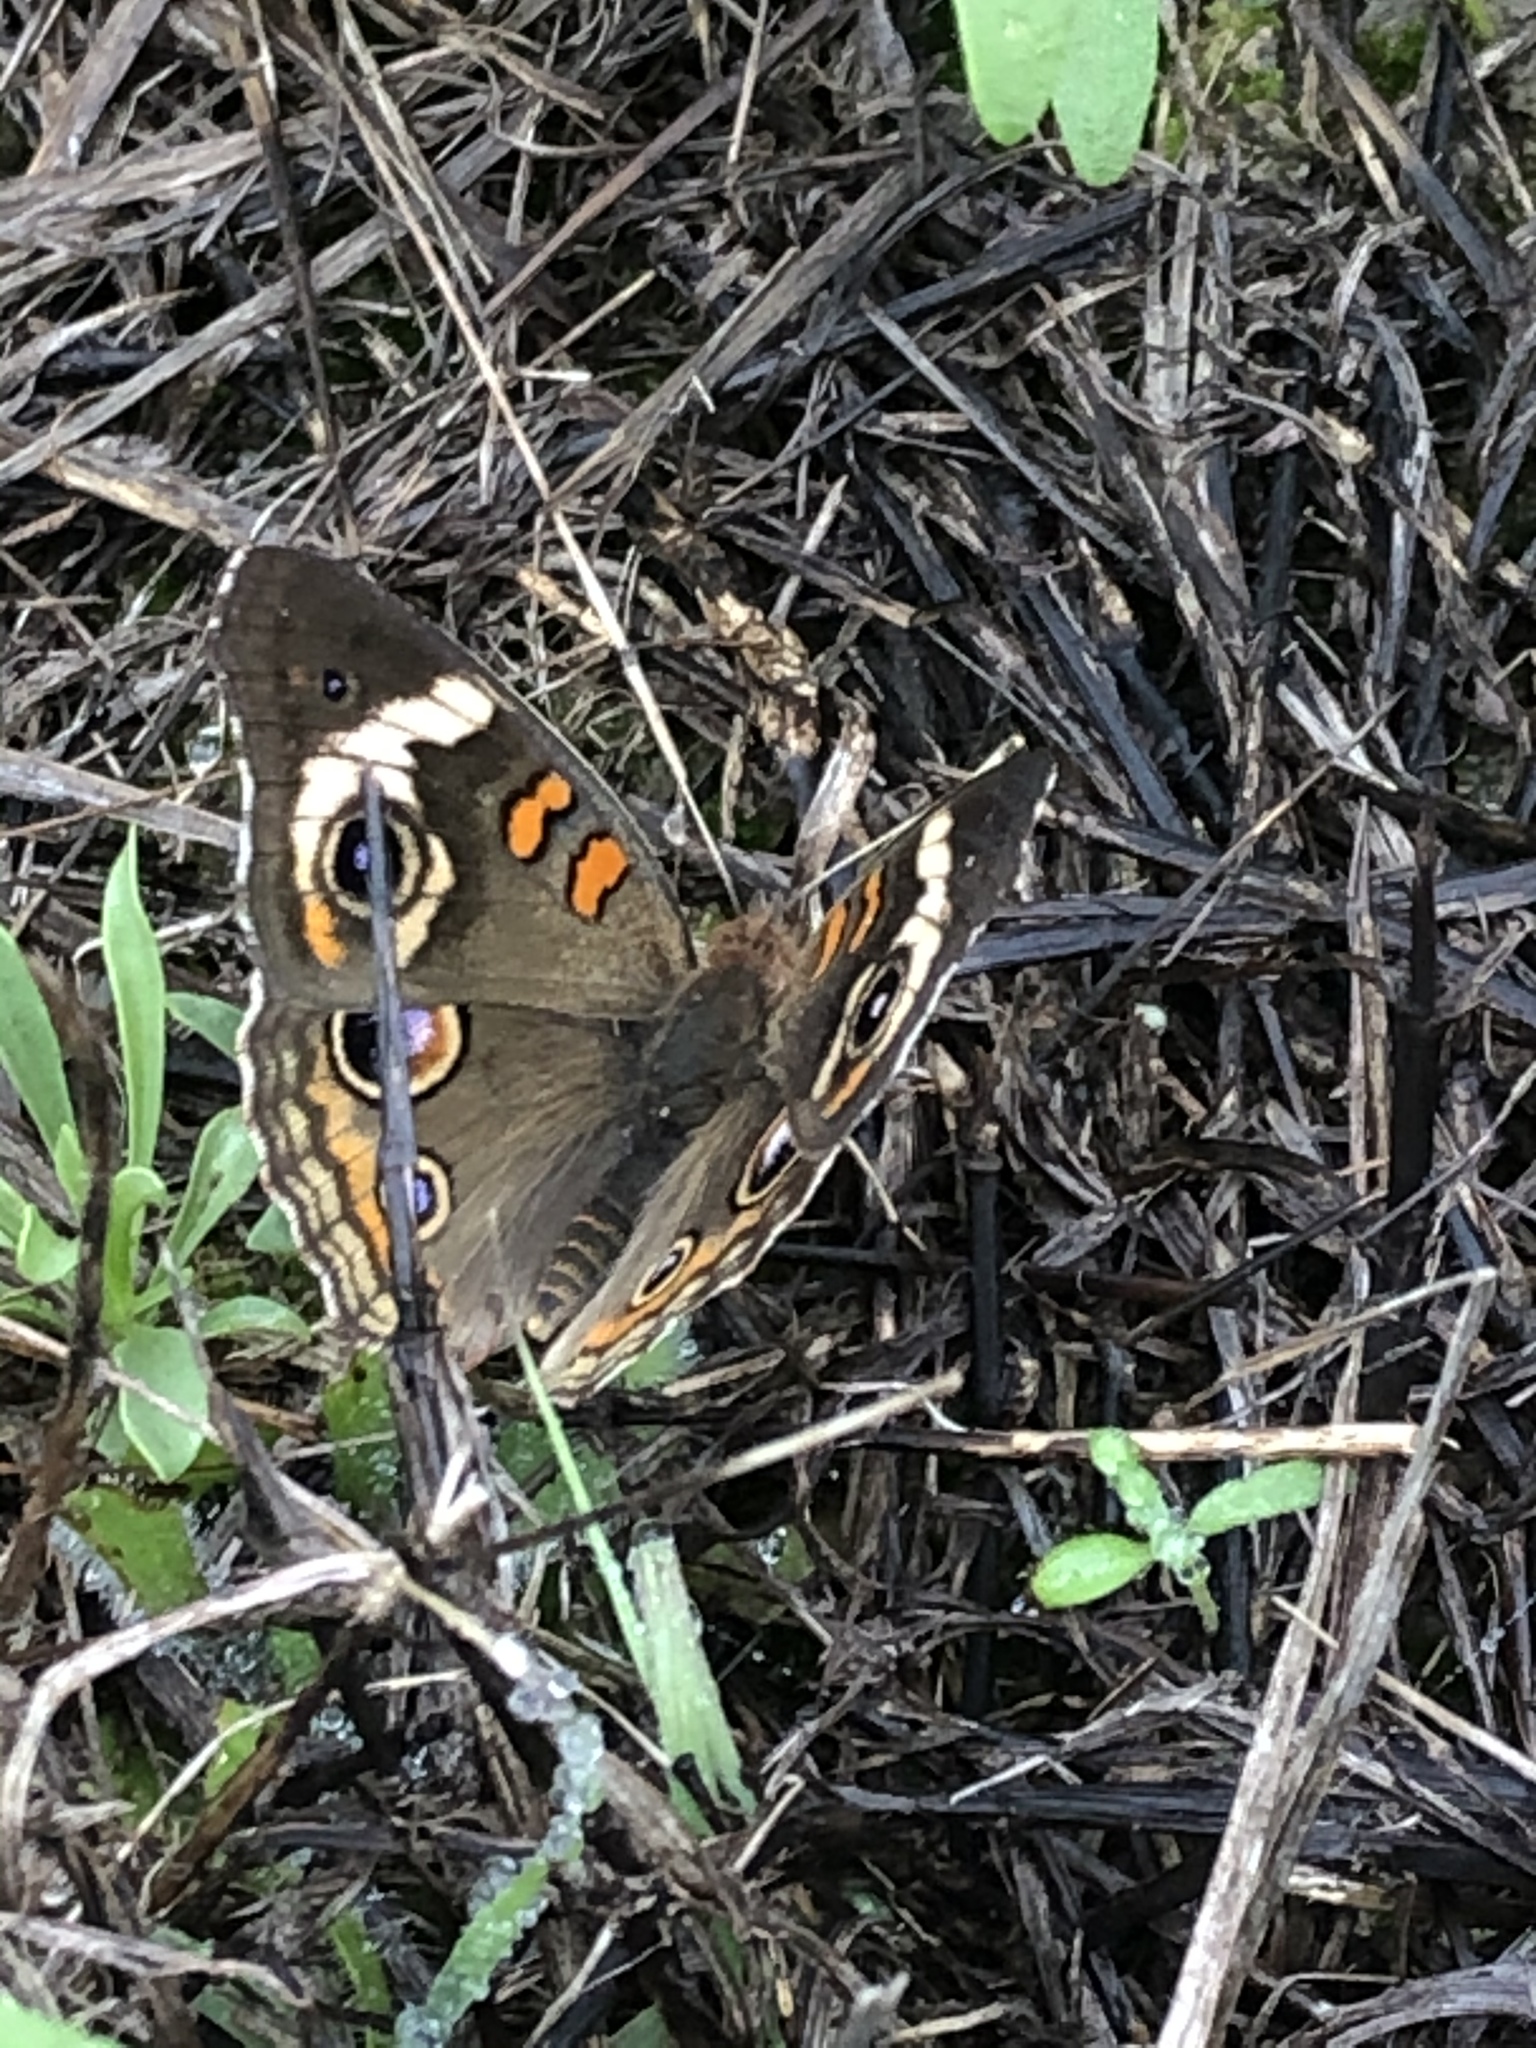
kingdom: Animalia
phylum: Arthropoda
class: Insecta
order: Lepidoptera
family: Nymphalidae
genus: Junonia
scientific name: Junonia coenia
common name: Common buckeye
